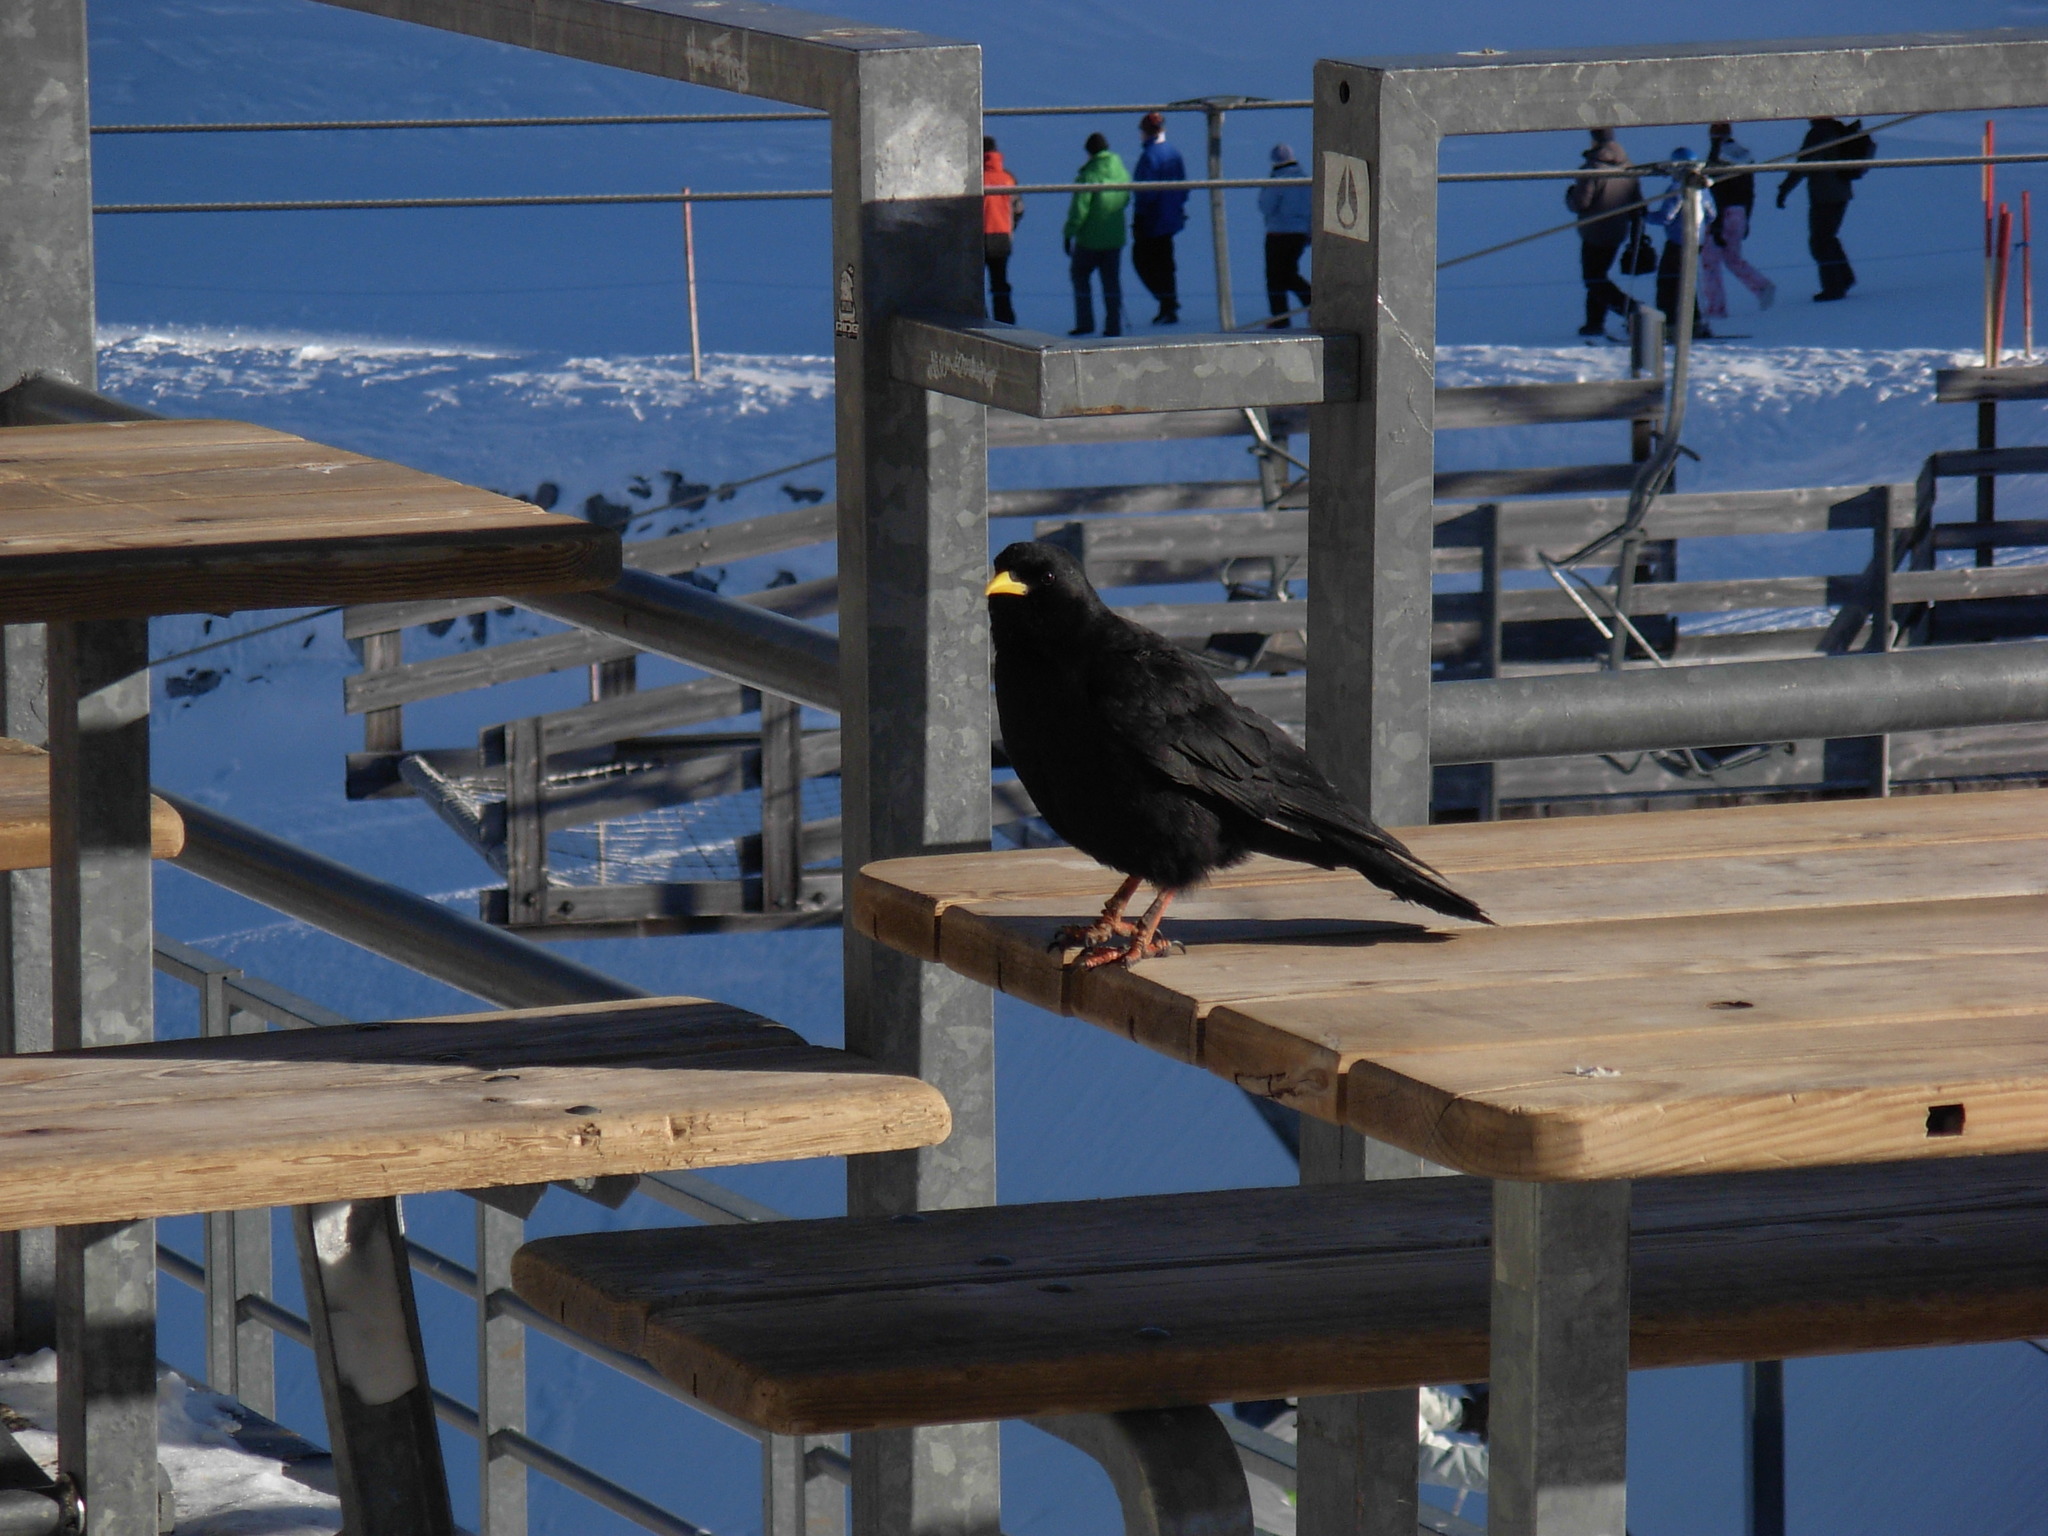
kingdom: Animalia
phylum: Chordata
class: Aves
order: Passeriformes
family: Corvidae
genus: Pyrrhocorax
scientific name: Pyrrhocorax graculus
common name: Alpine chough
